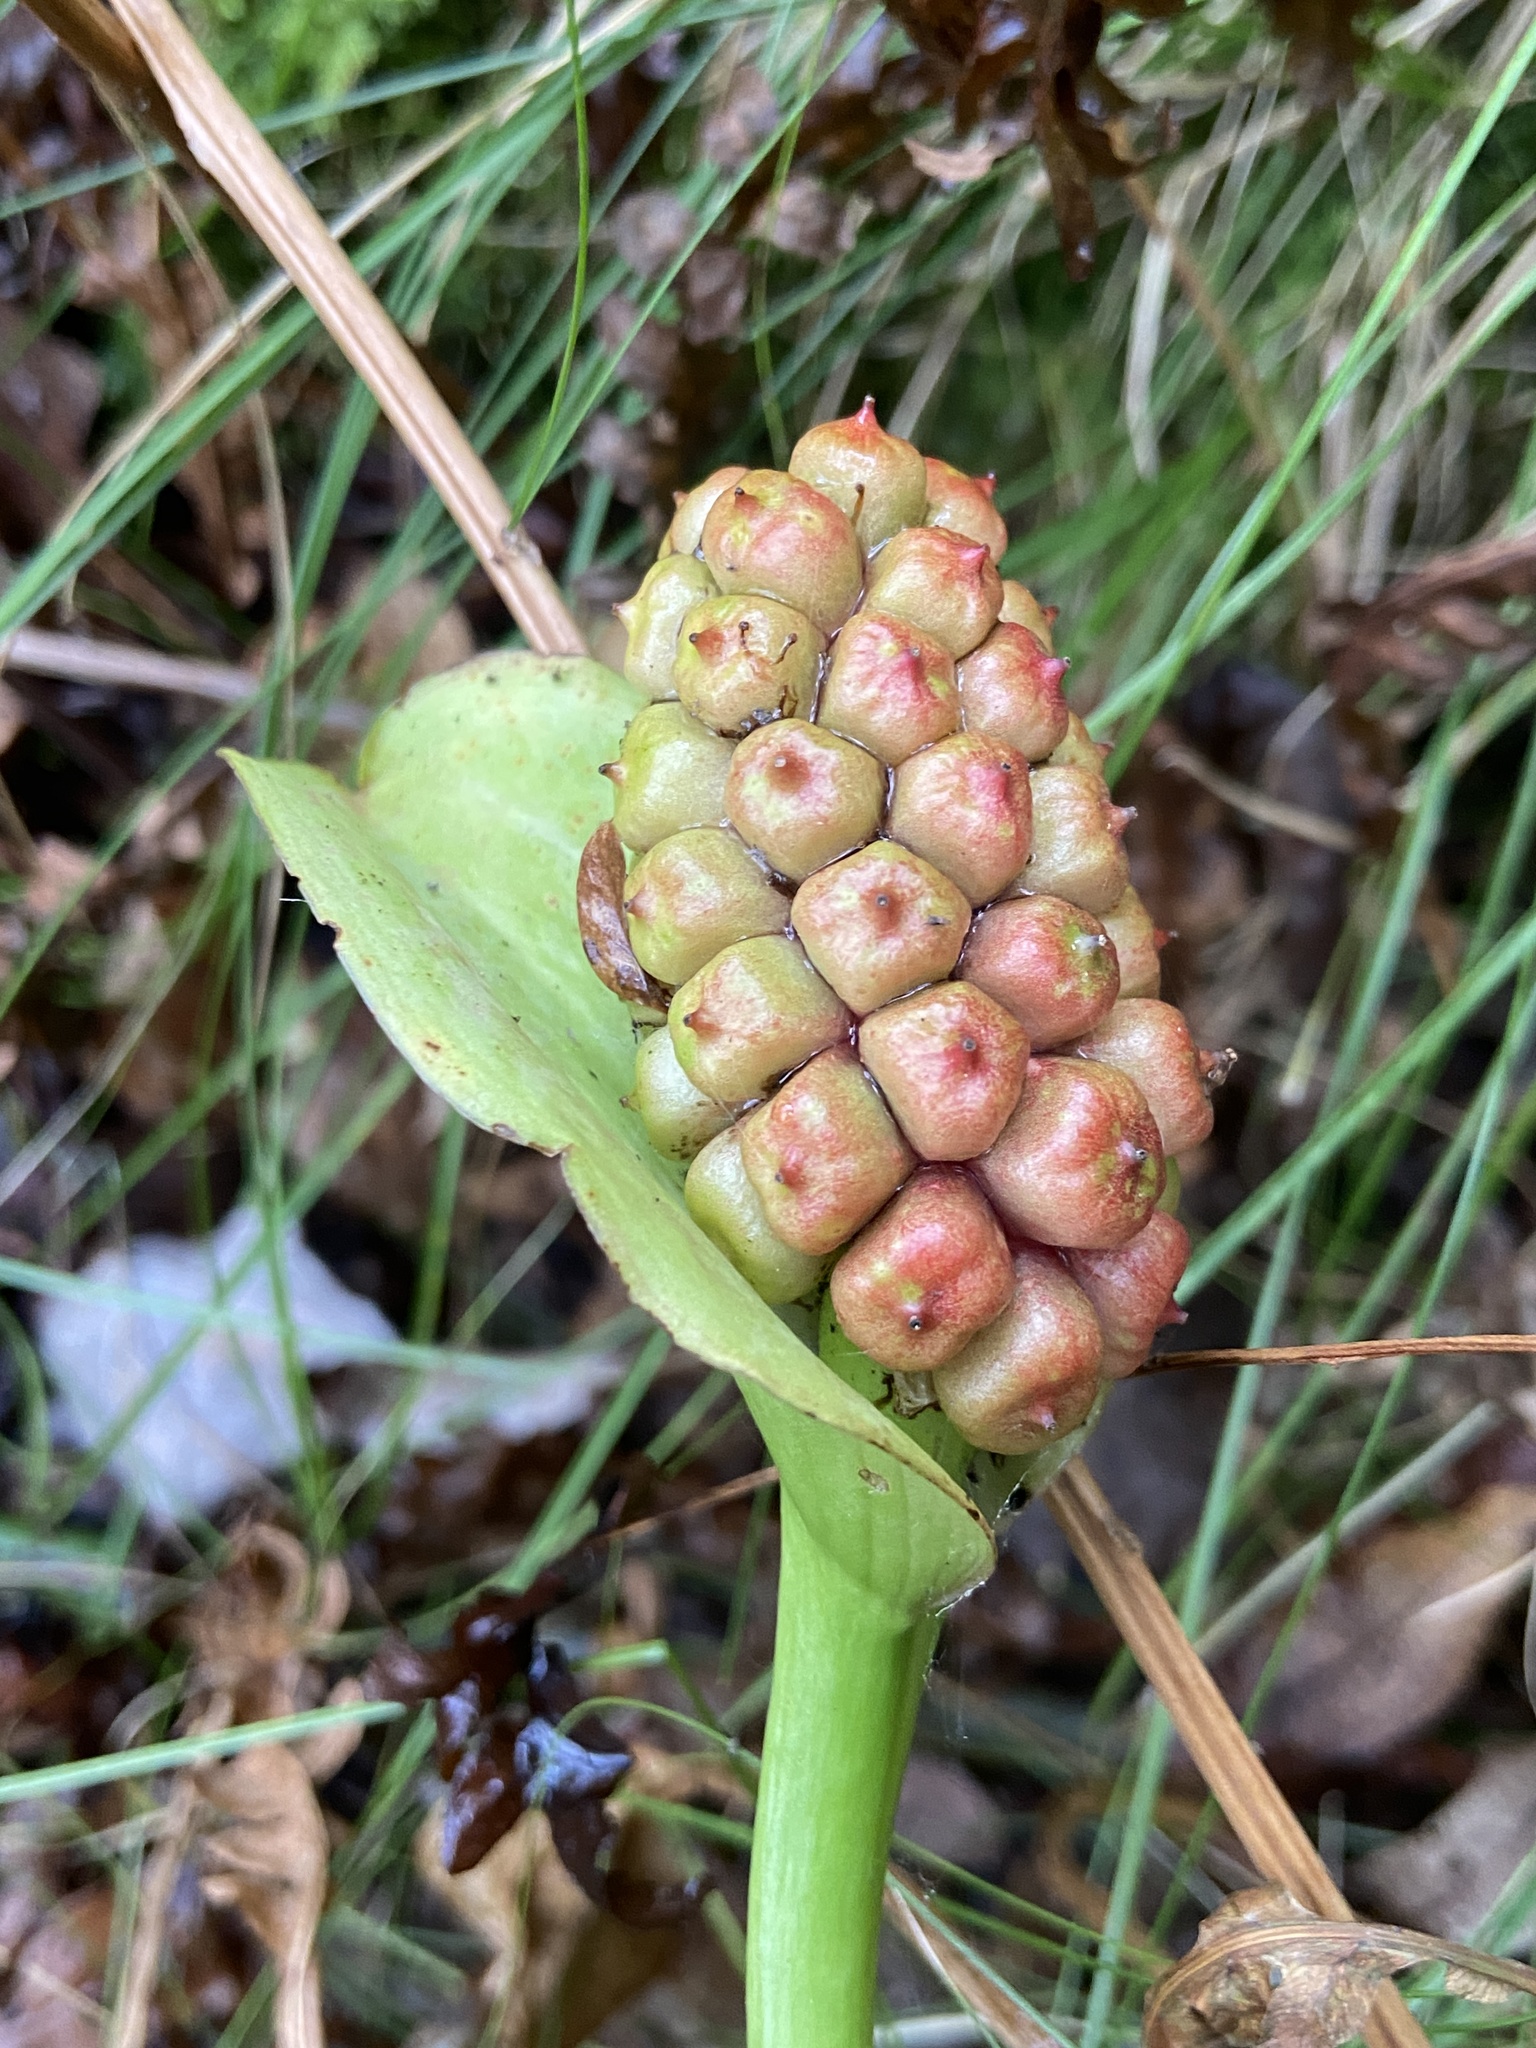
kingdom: Plantae
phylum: Tracheophyta
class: Liliopsida
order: Alismatales
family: Araceae
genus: Calla
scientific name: Calla palustris
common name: Bog arum
